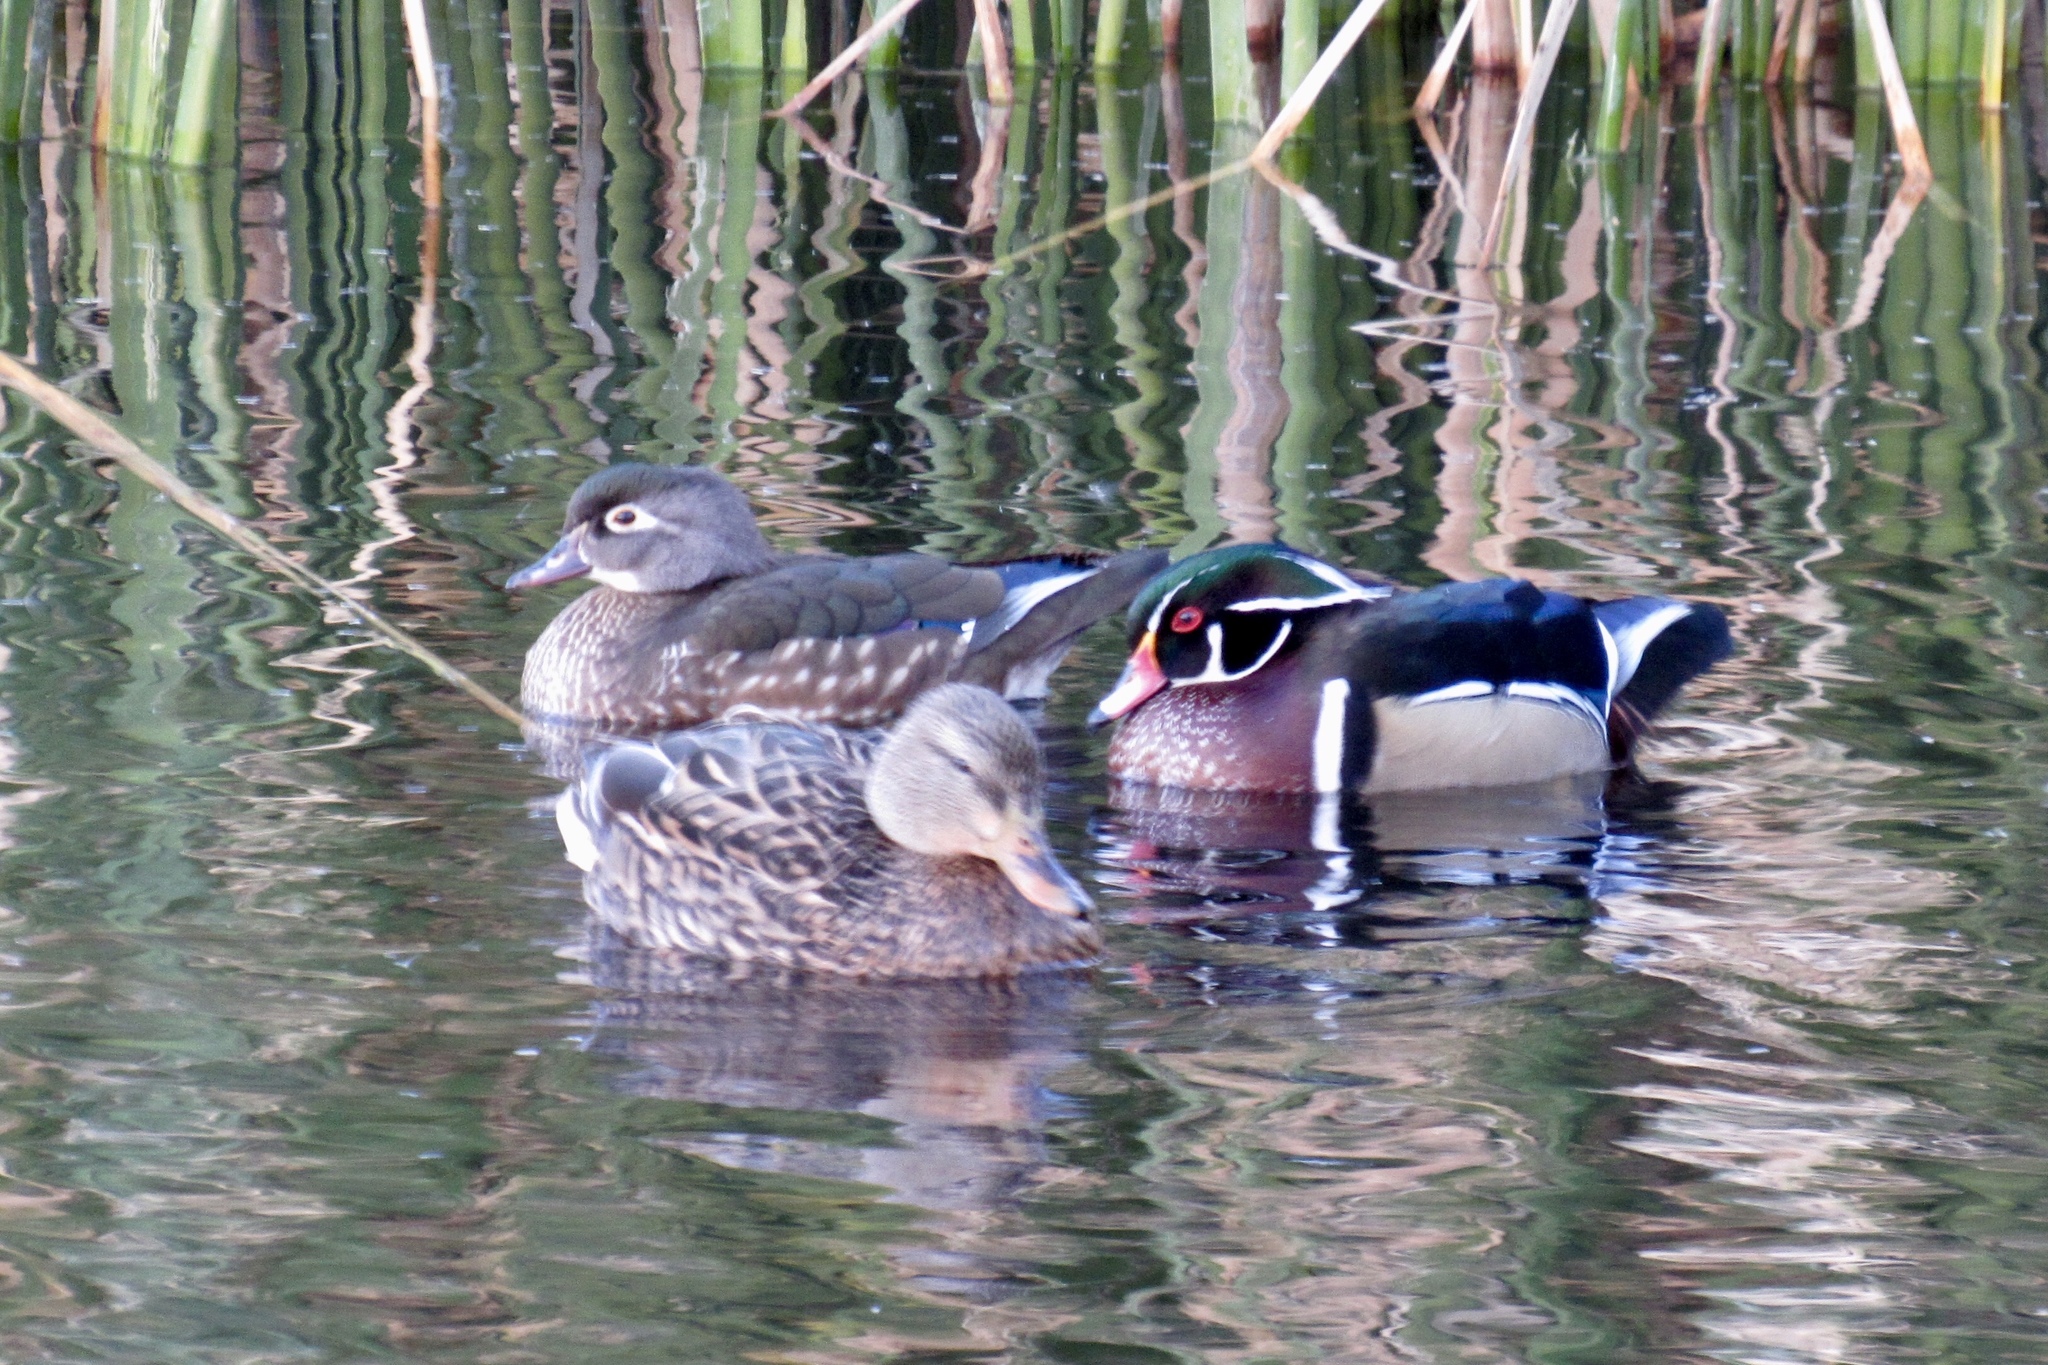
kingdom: Animalia
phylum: Chordata
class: Aves
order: Anseriformes
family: Anatidae
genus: Aix
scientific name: Aix sponsa
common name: Wood duck
